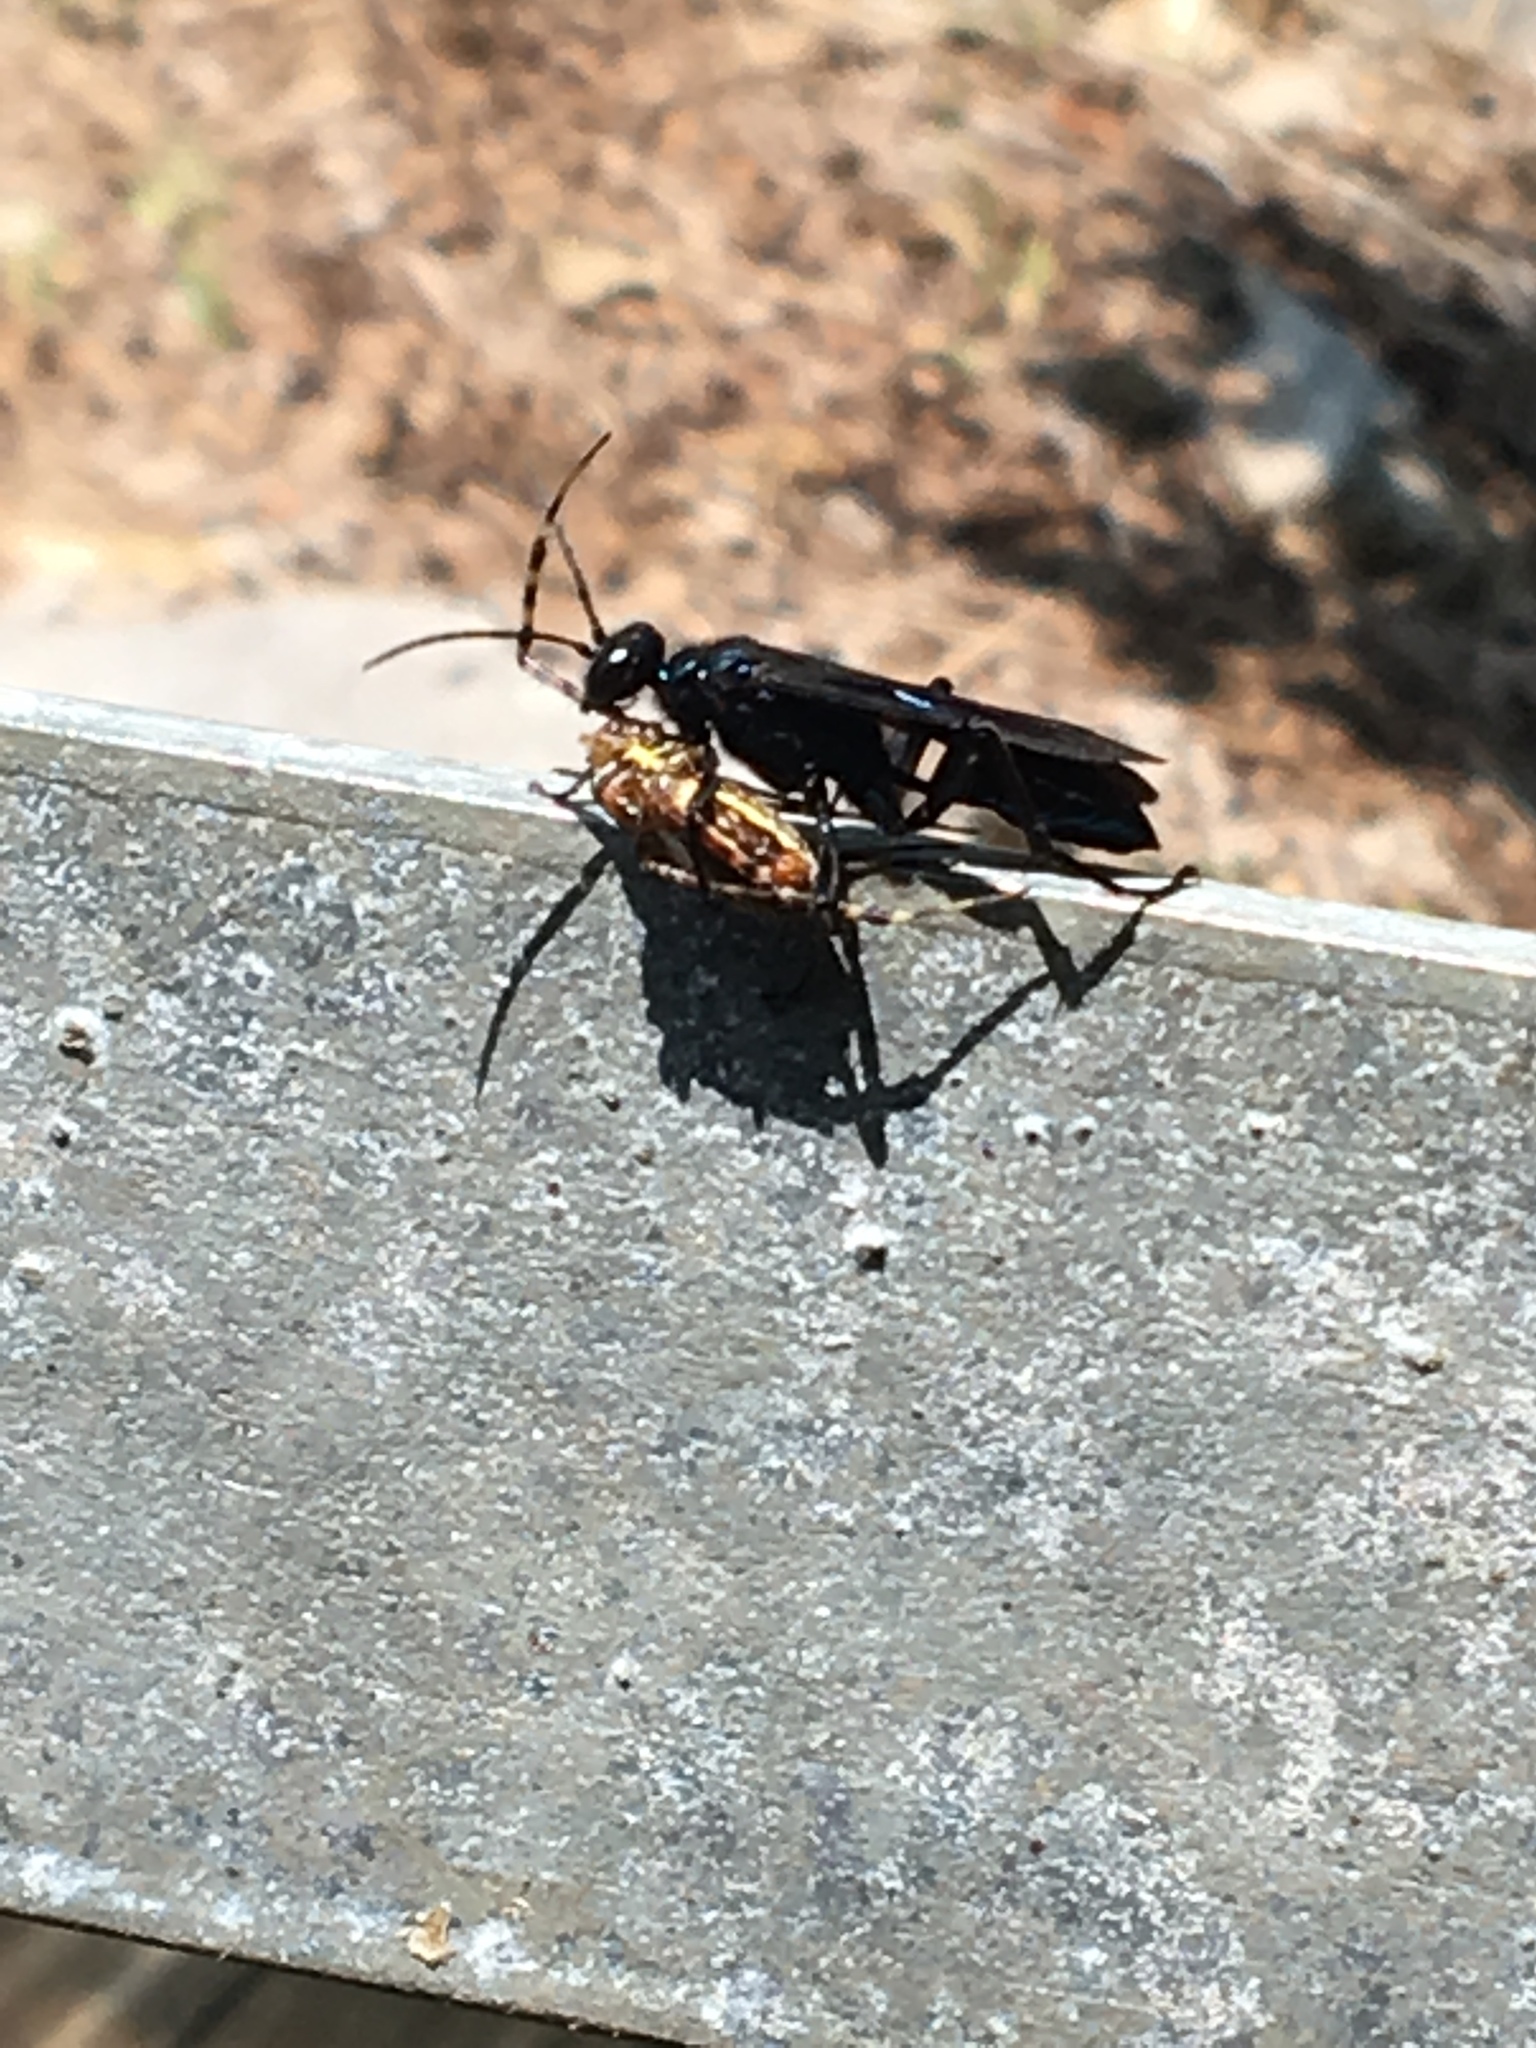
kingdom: Animalia
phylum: Arthropoda
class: Insecta
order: Hymenoptera
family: Sphecidae
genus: Chalybion
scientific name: Chalybion californicum
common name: Mud dauber
